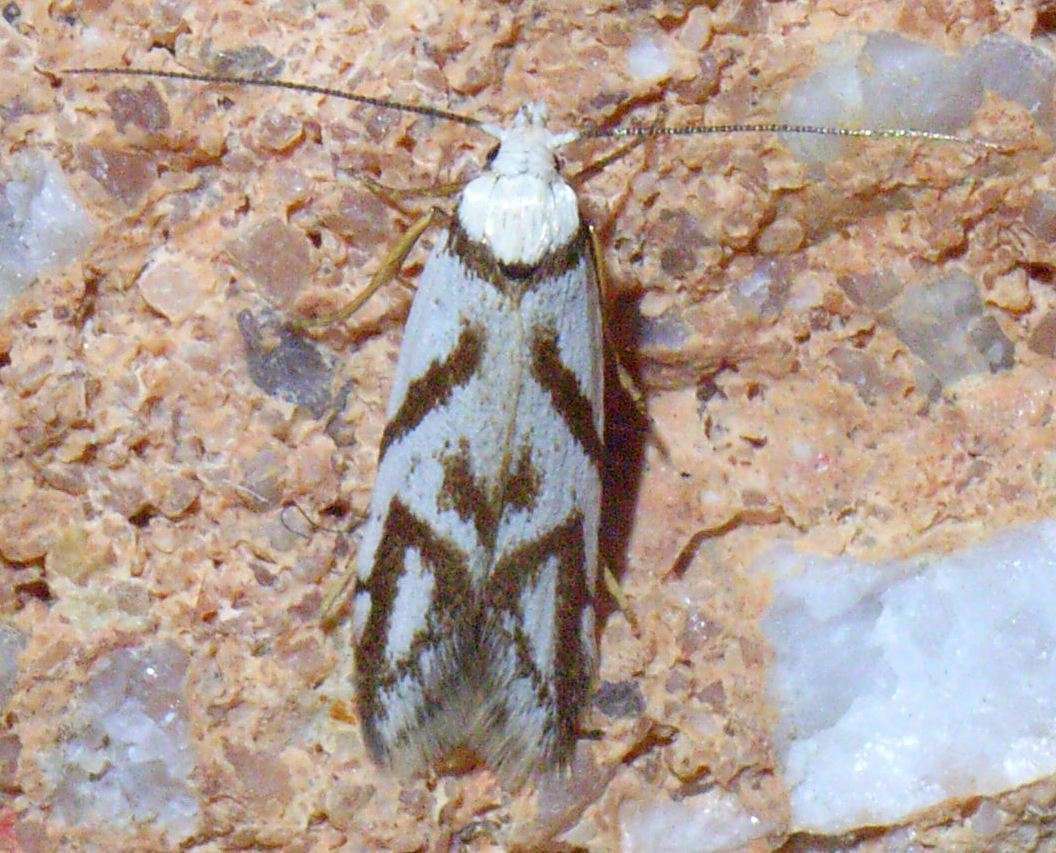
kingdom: Animalia
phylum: Arthropoda
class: Insecta
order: Lepidoptera
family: Oecophoridae
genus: Oxythecta
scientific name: Oxythecta acceptella
